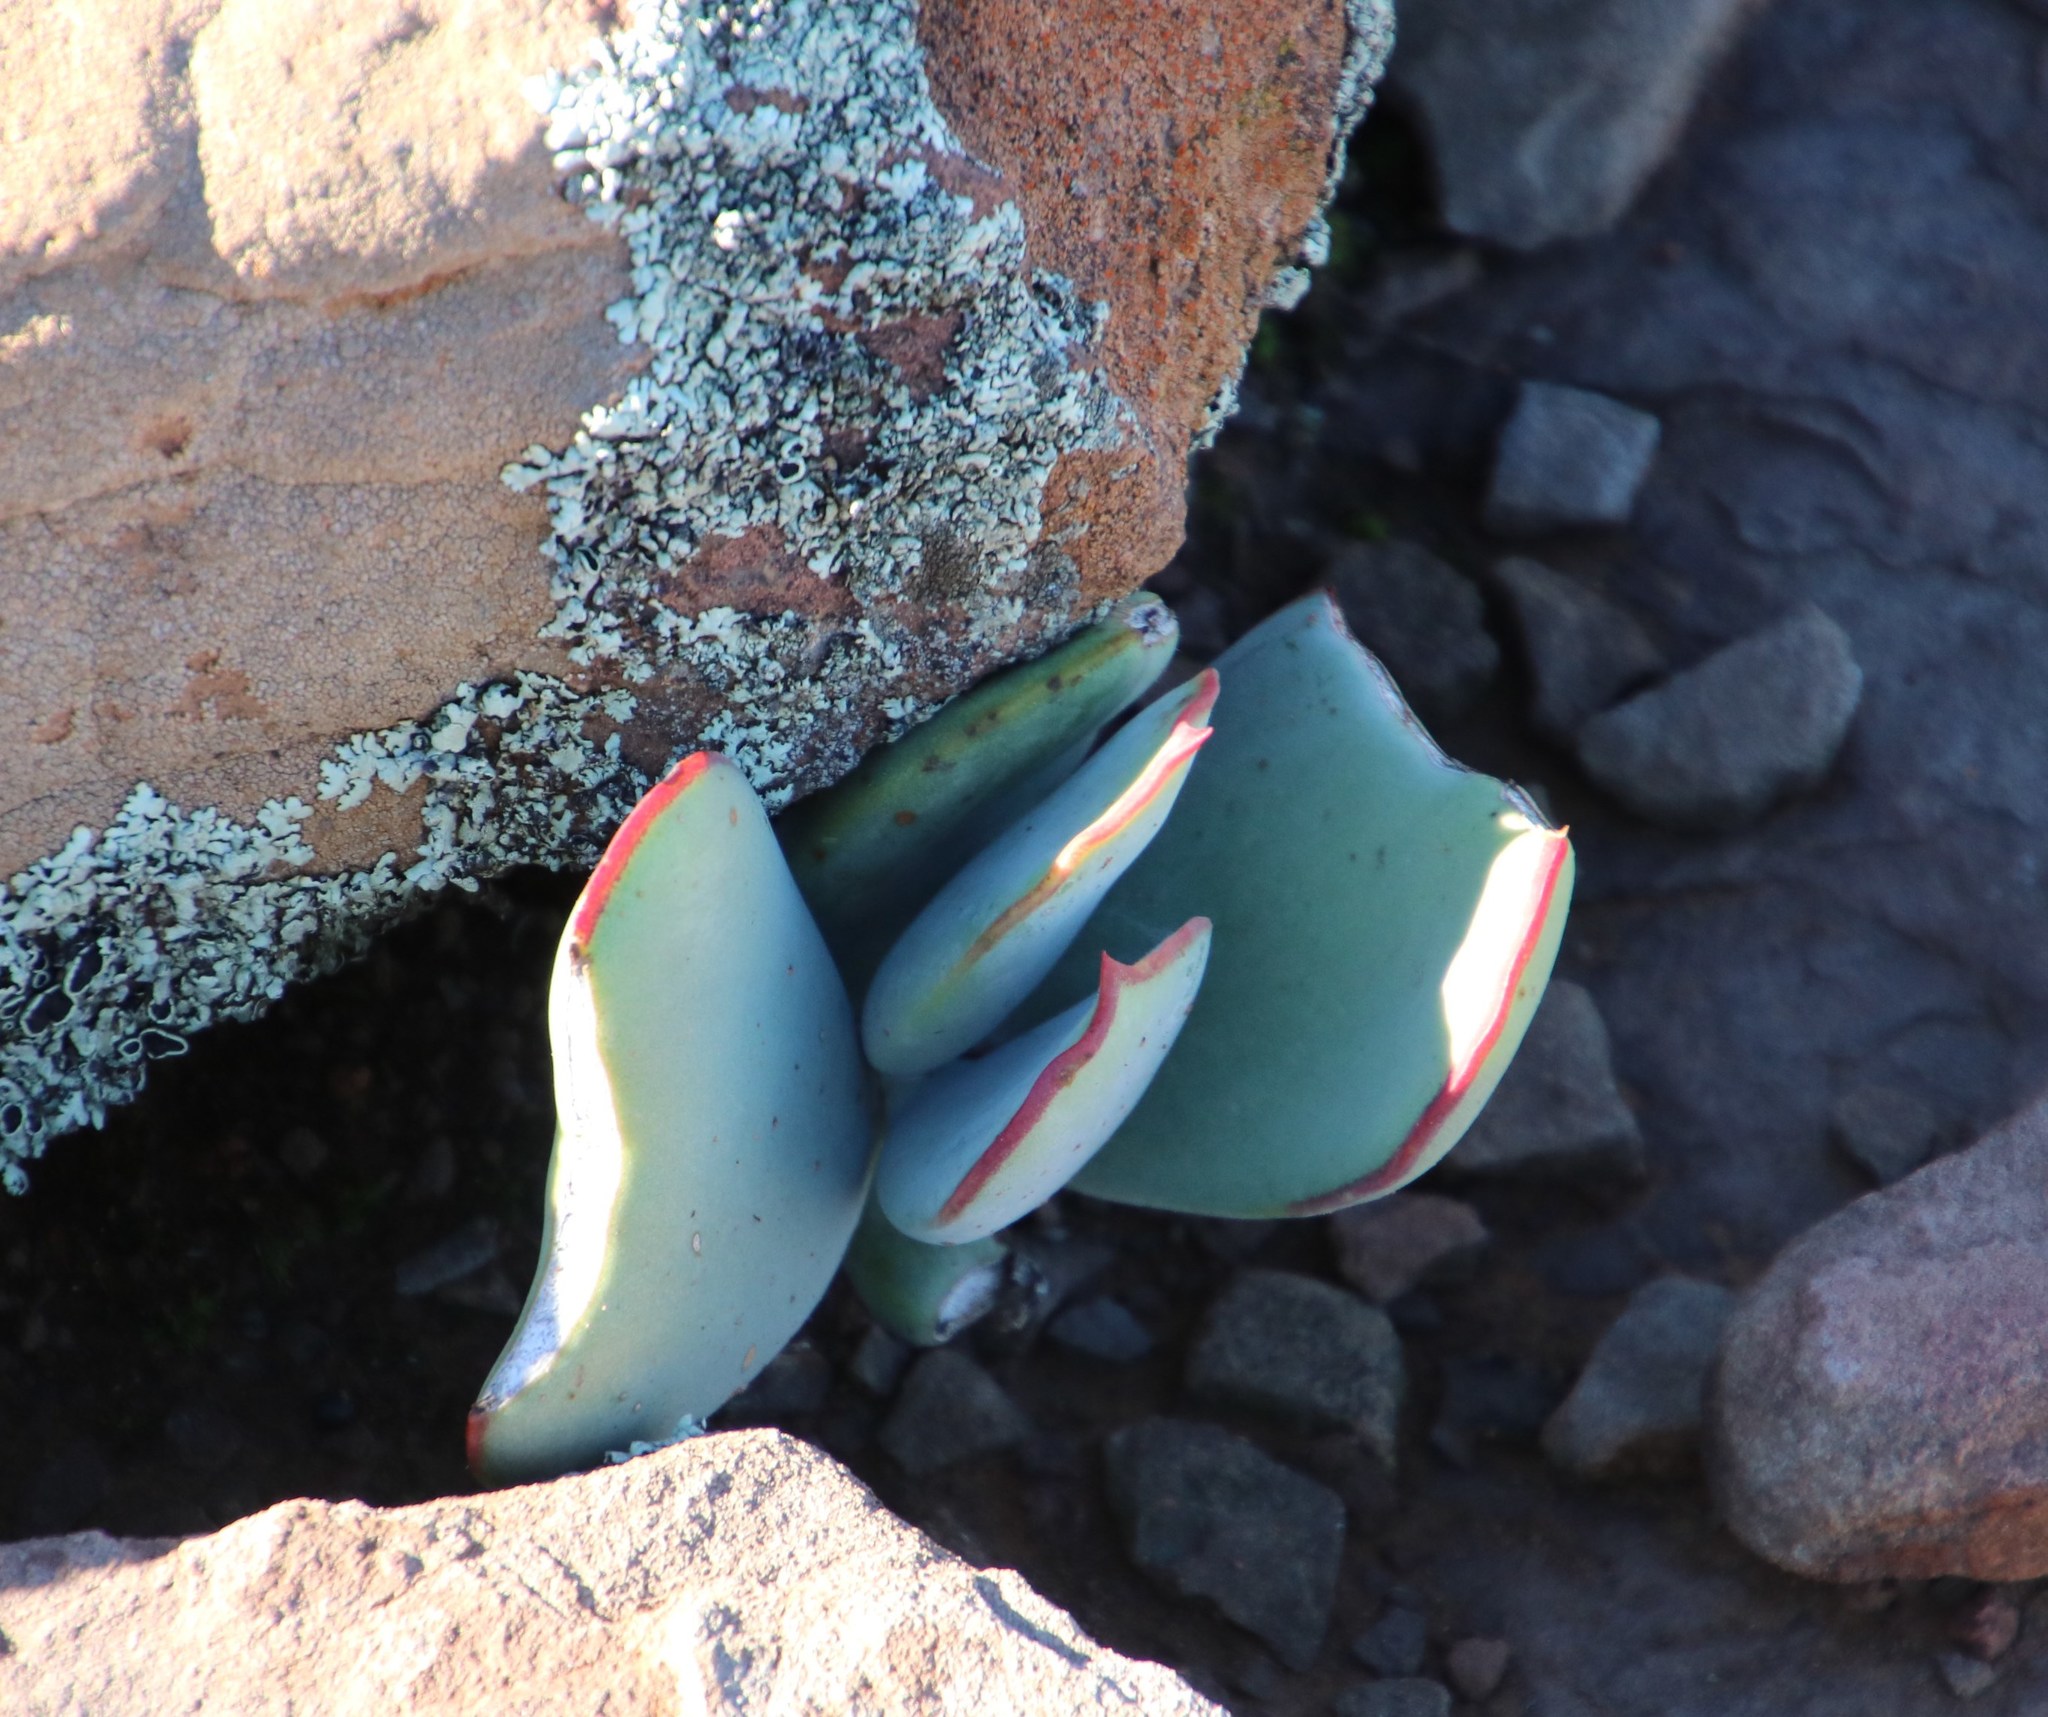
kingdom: Plantae
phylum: Tracheophyta
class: Magnoliopsida
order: Saxifragales
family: Crassulaceae
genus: Cotyledon
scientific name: Cotyledon orbiculata
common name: Pig's ear
